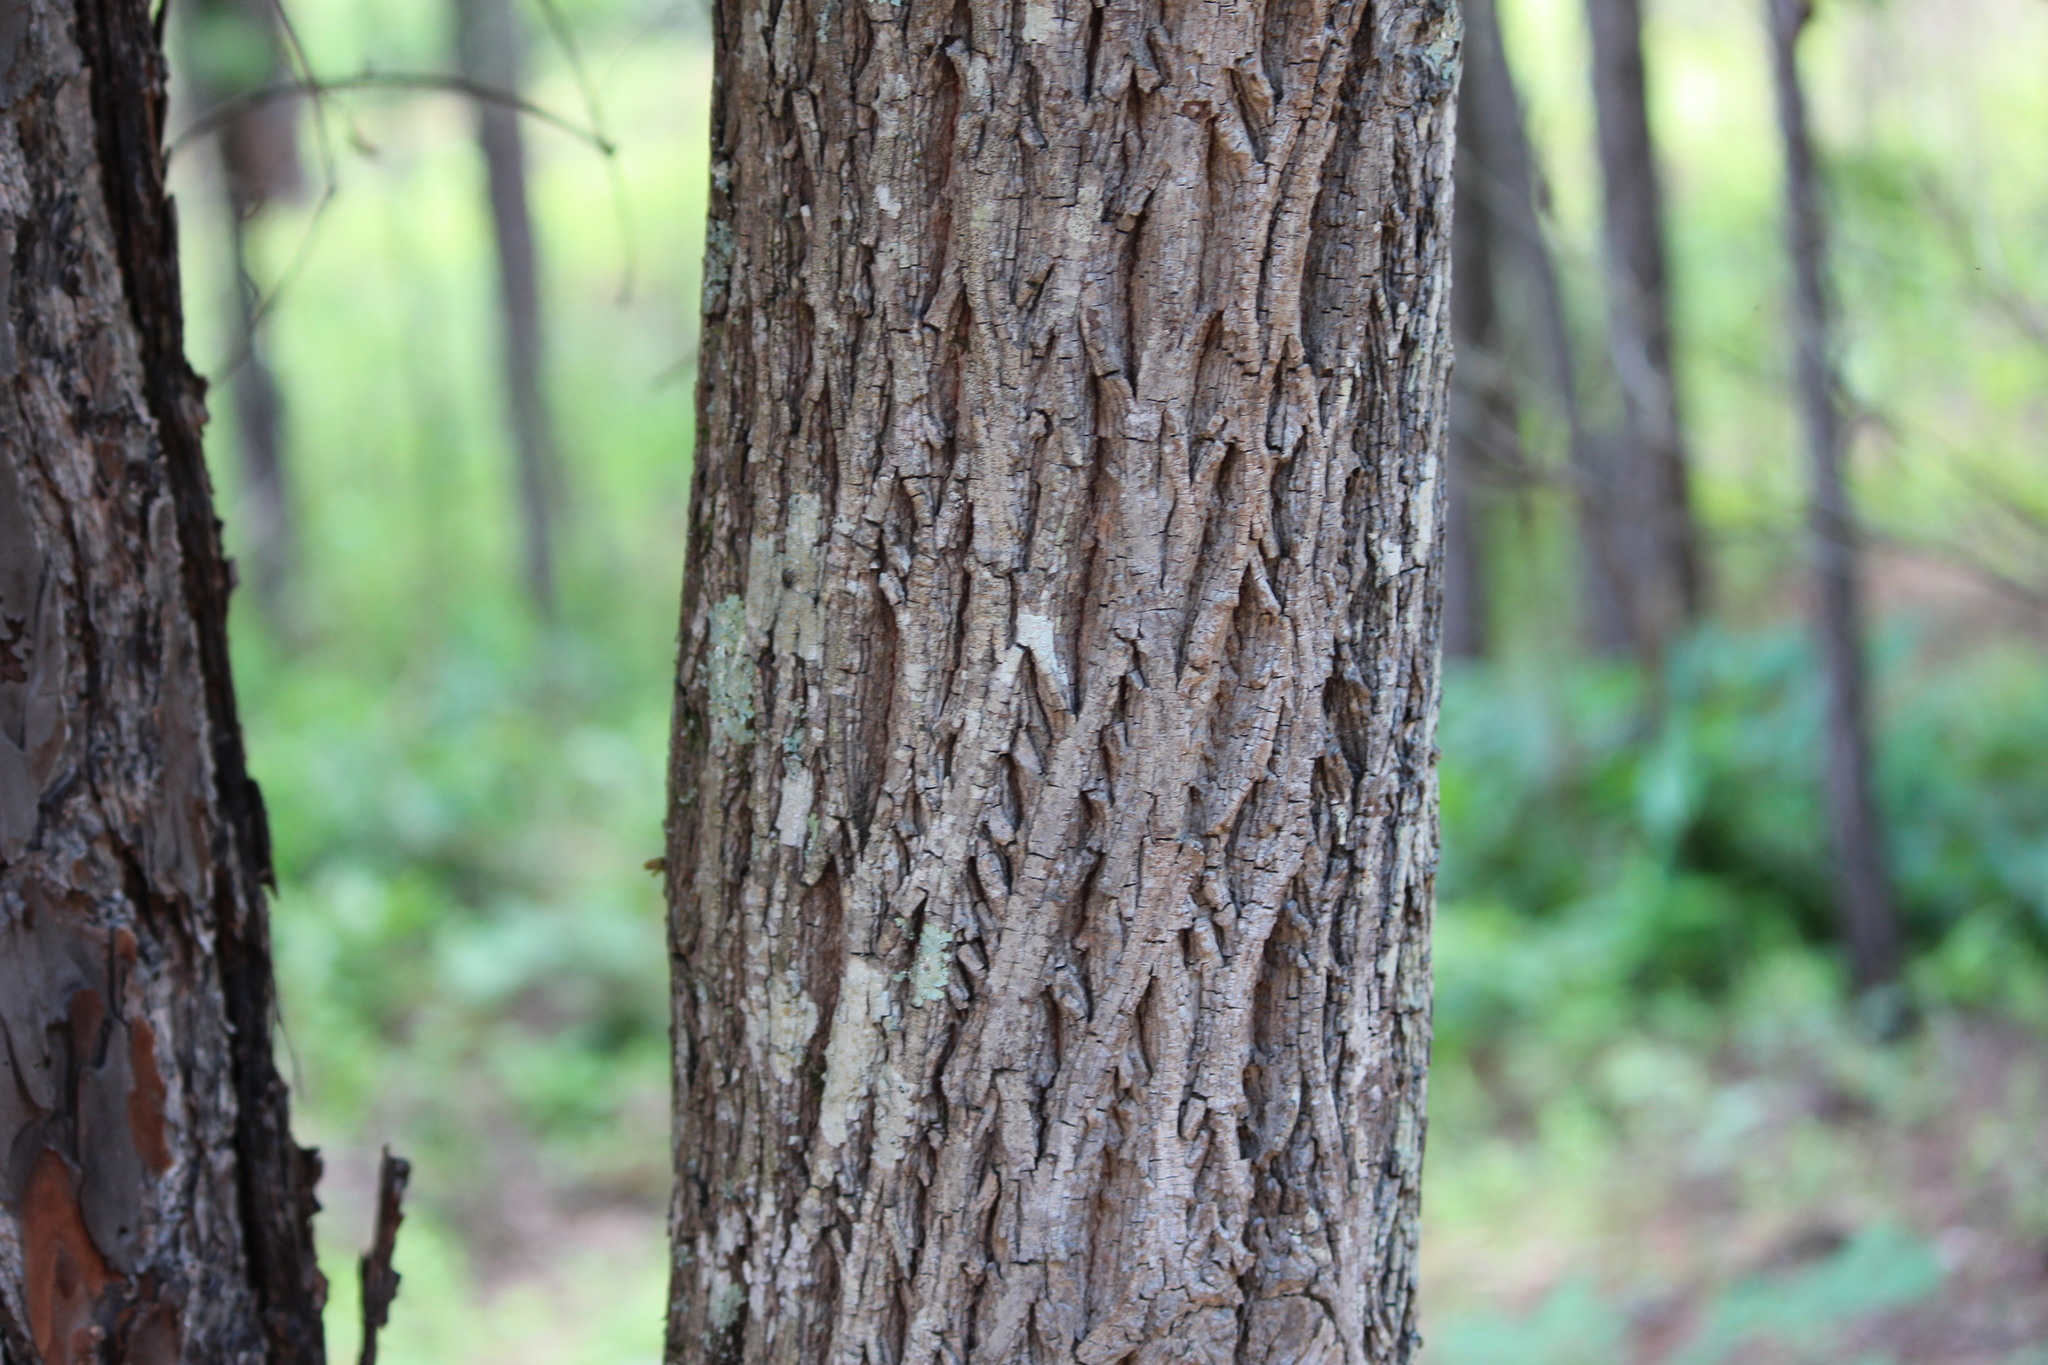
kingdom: Plantae
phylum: Tracheophyta
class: Magnoliopsida
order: Fagales
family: Juglandaceae
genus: Carya
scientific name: Carya pallida
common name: Sand hickory
